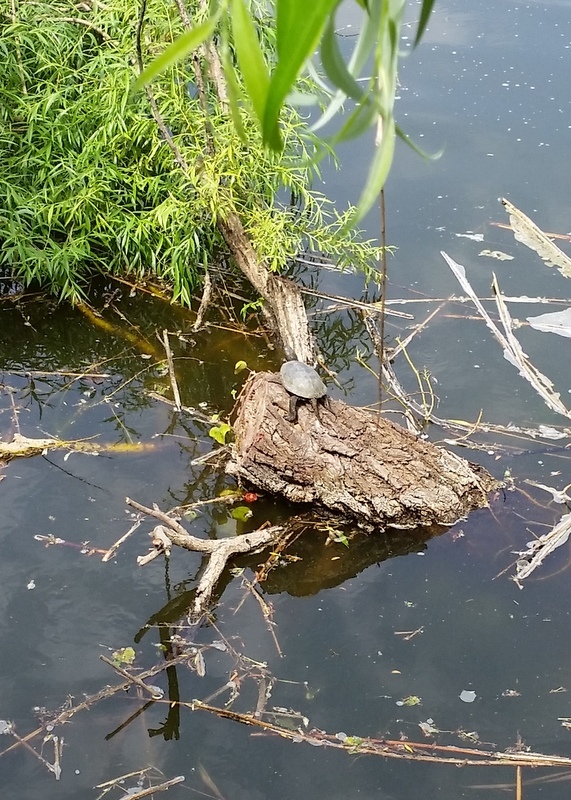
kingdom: Animalia
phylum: Chordata
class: Testudines
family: Emydidae
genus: Emys
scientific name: Emys orbicularis
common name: European pond turtle
